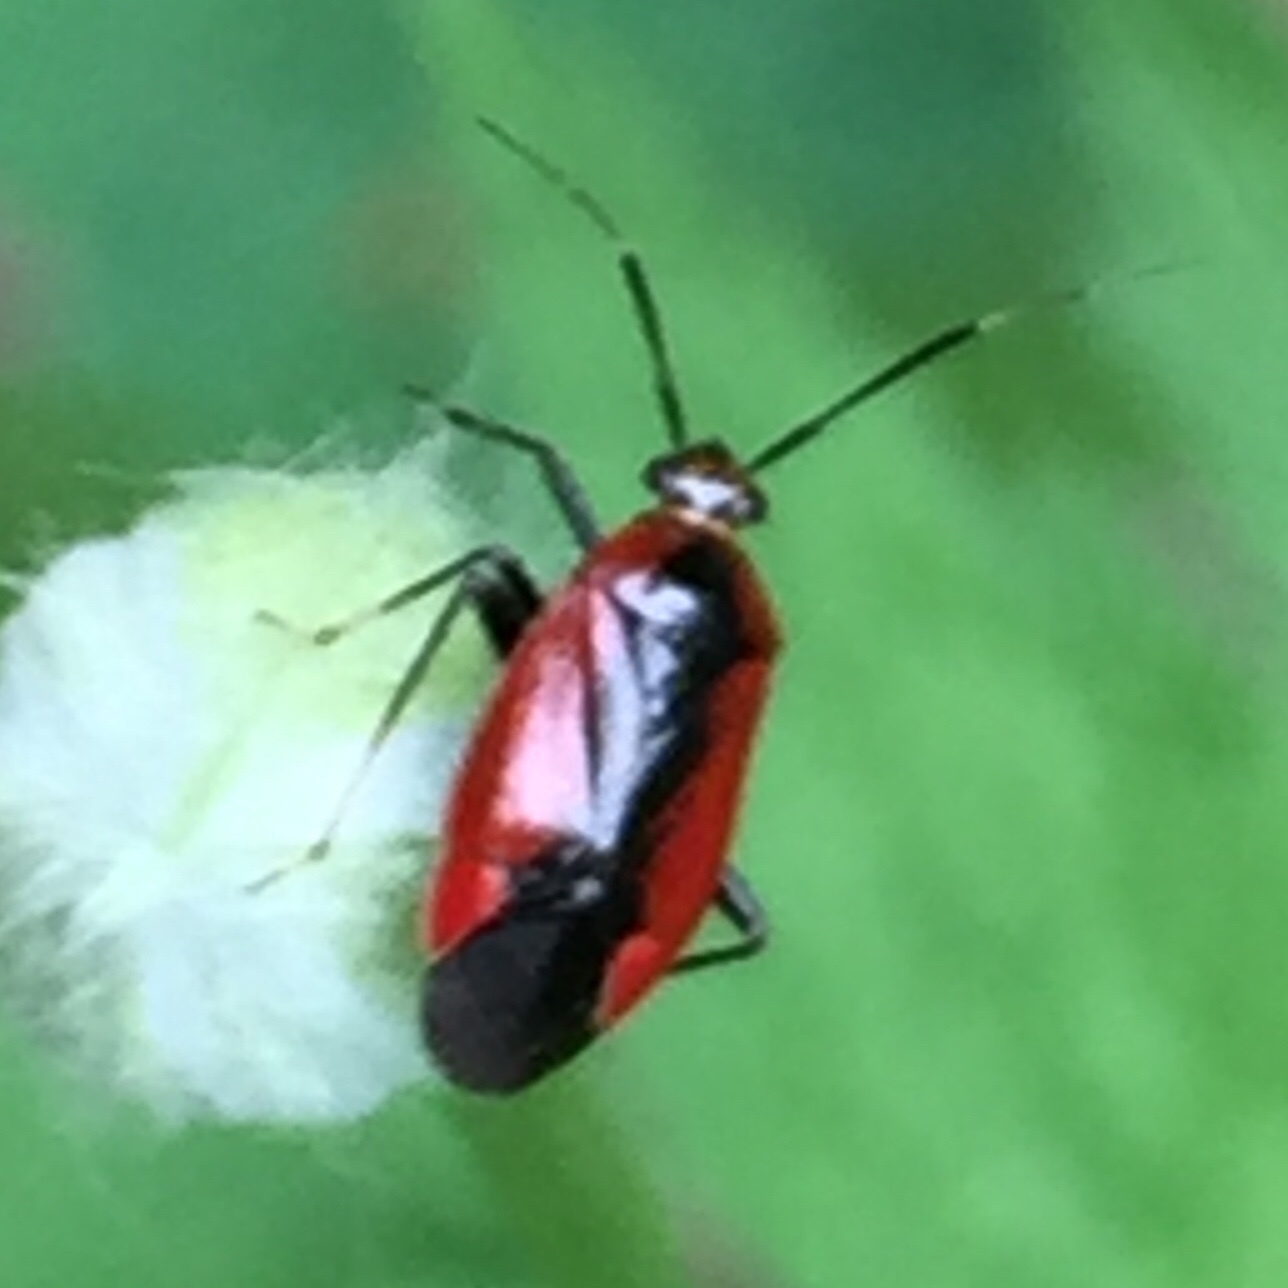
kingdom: Animalia
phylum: Arthropoda
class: Insecta
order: Hemiptera
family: Miridae
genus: Metriorrhynchomiris
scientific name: Metriorrhynchomiris dislocatus
